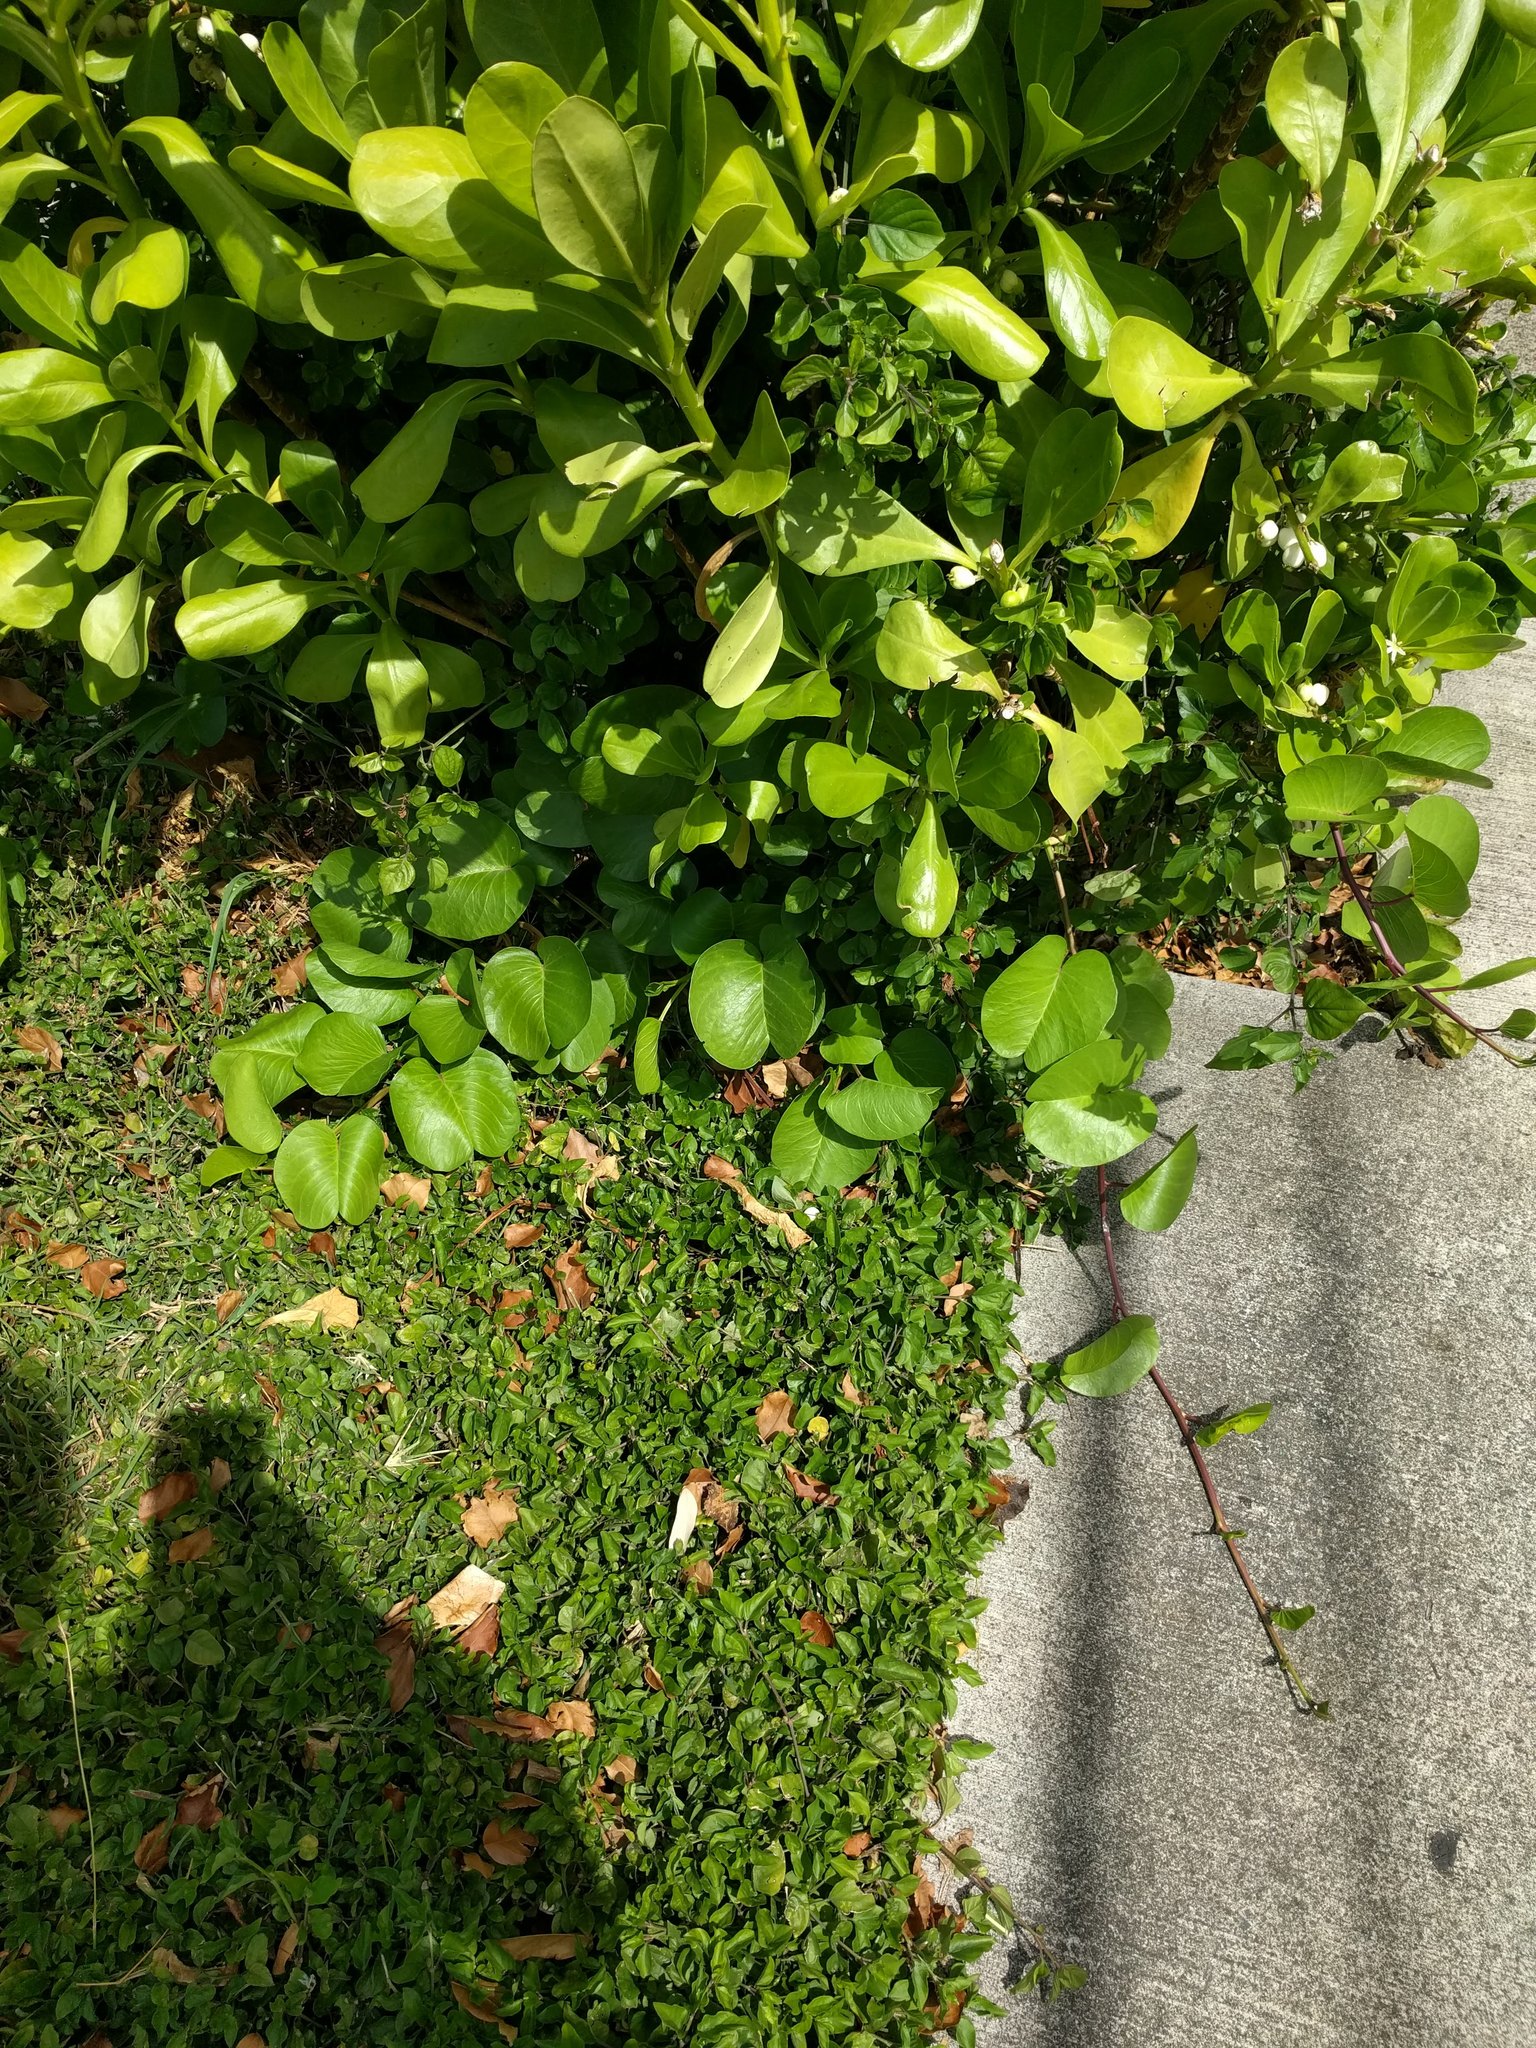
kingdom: Plantae
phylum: Tracheophyta
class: Magnoliopsida
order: Solanales
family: Convolvulaceae
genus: Ipomoea
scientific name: Ipomoea pes-caprae
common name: Beach morning glory
